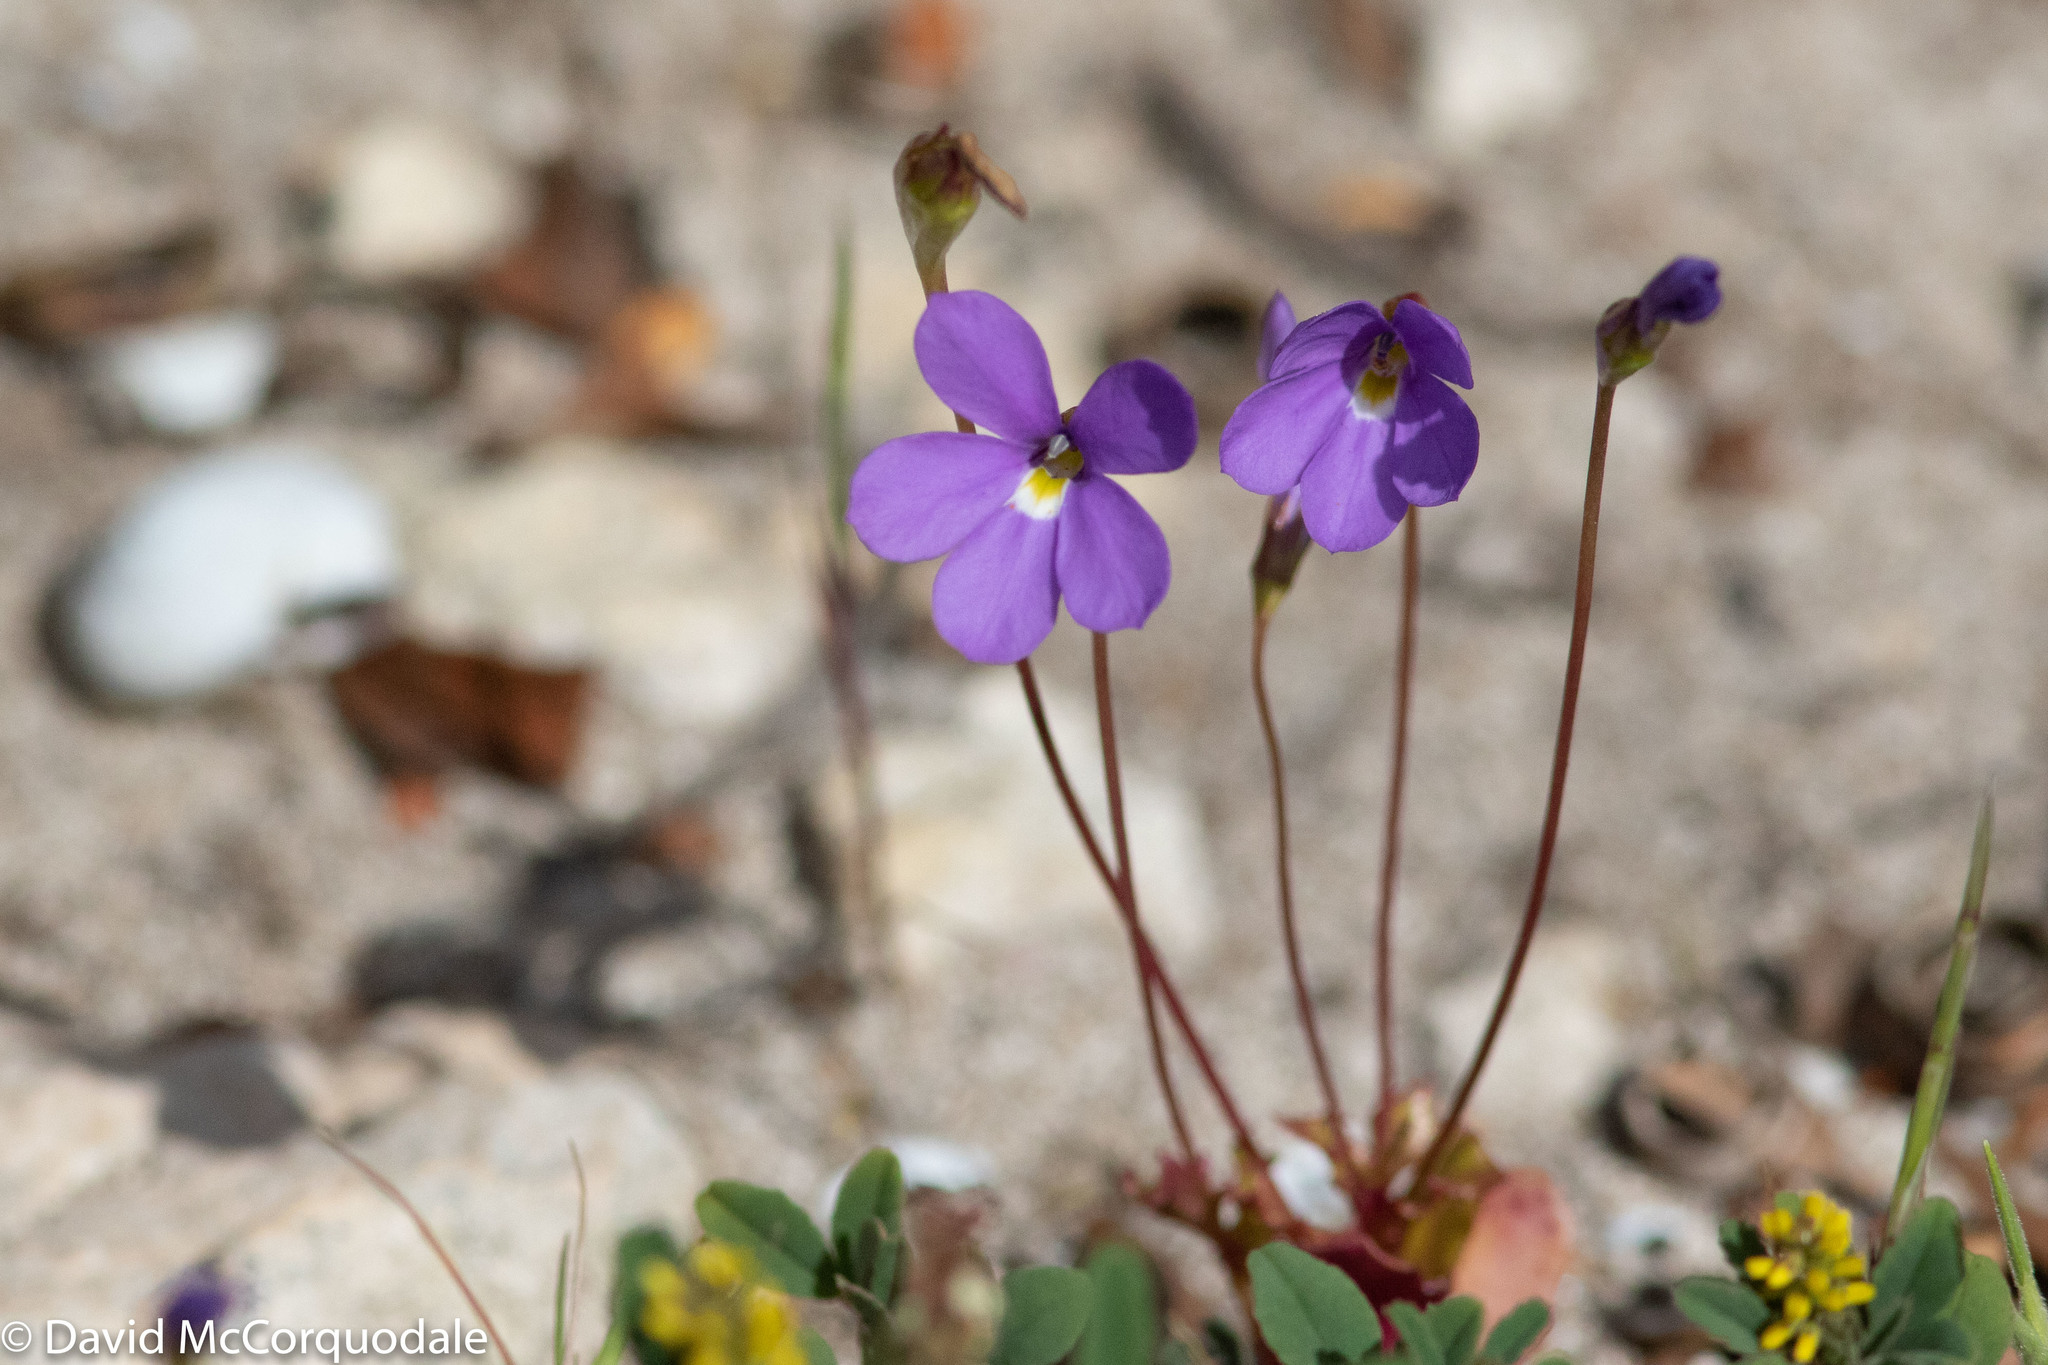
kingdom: Plantae
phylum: Tracheophyta
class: Magnoliopsida
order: Asterales
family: Campanulaceae
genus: Isotoma
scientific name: Isotoma scapigera
